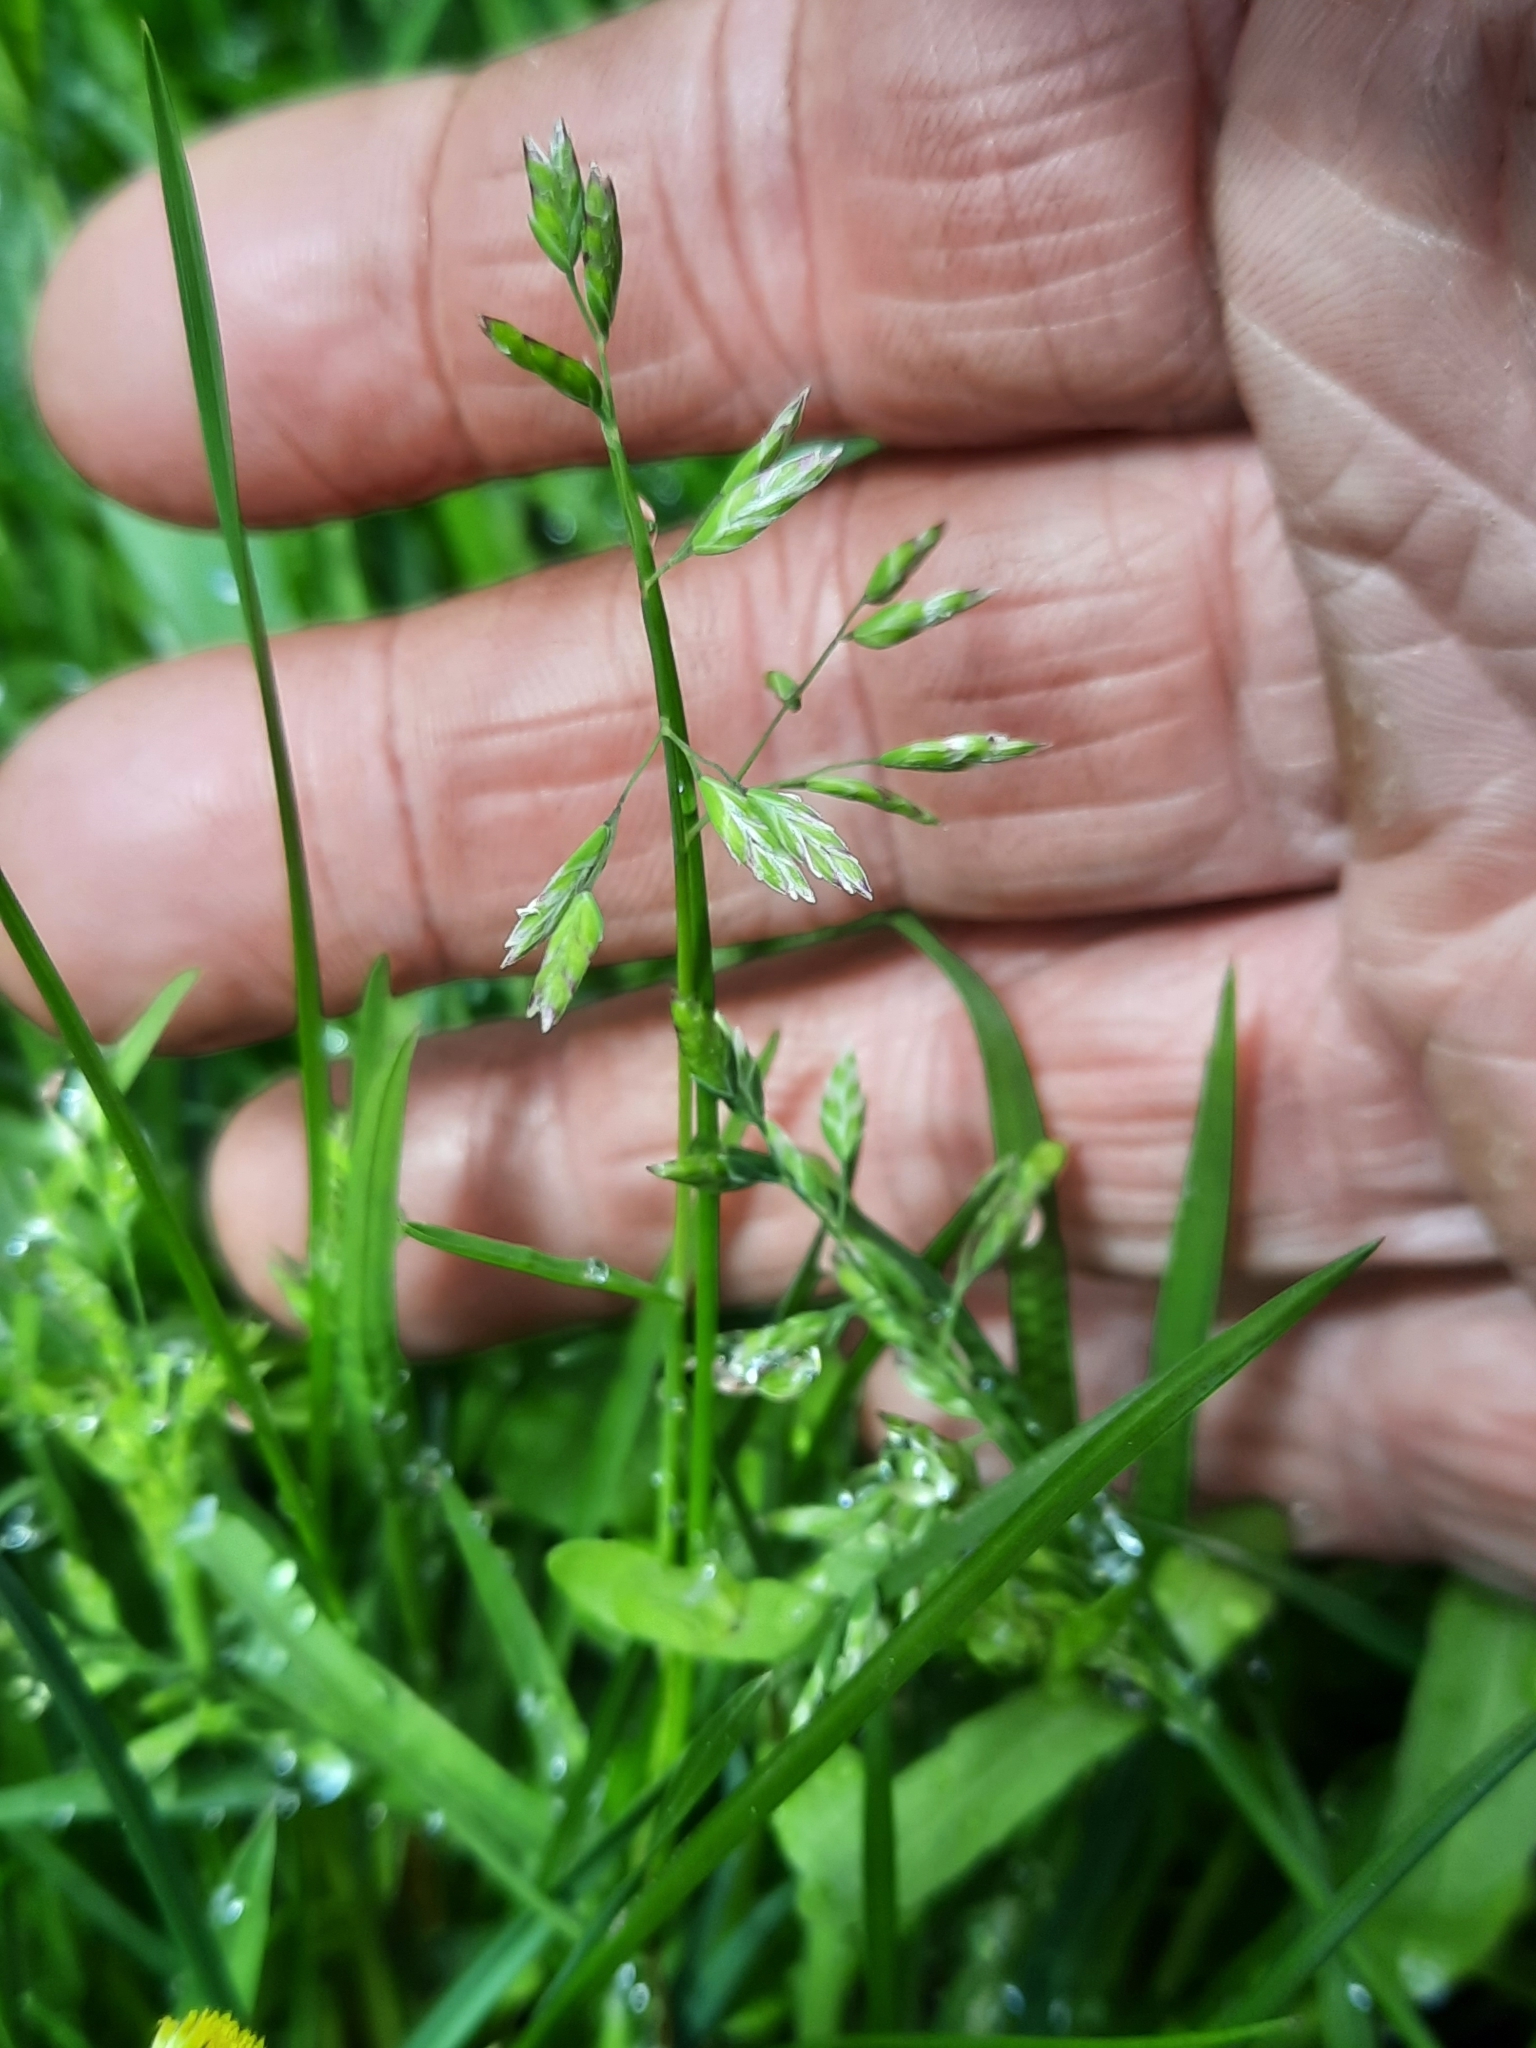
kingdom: Plantae
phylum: Tracheophyta
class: Liliopsida
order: Poales
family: Poaceae
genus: Poa
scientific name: Poa annua
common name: Annual bluegrass
